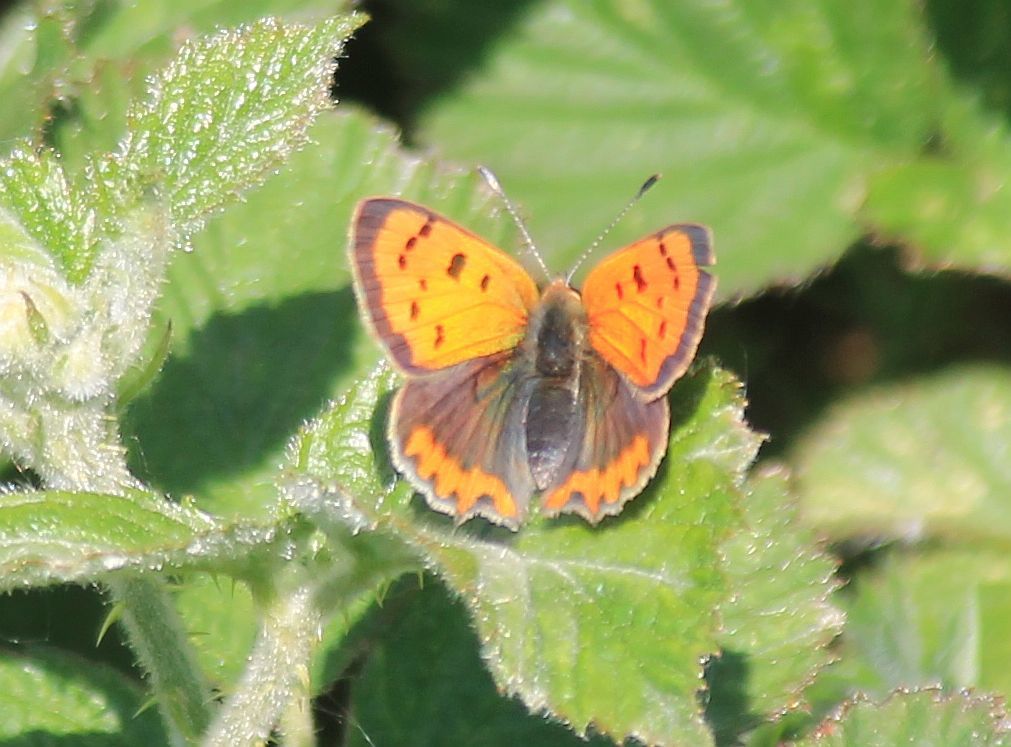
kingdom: Animalia
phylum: Arthropoda
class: Insecta
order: Lepidoptera
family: Lycaenidae
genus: Lycaena
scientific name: Lycaena phlaeas
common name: Small copper
